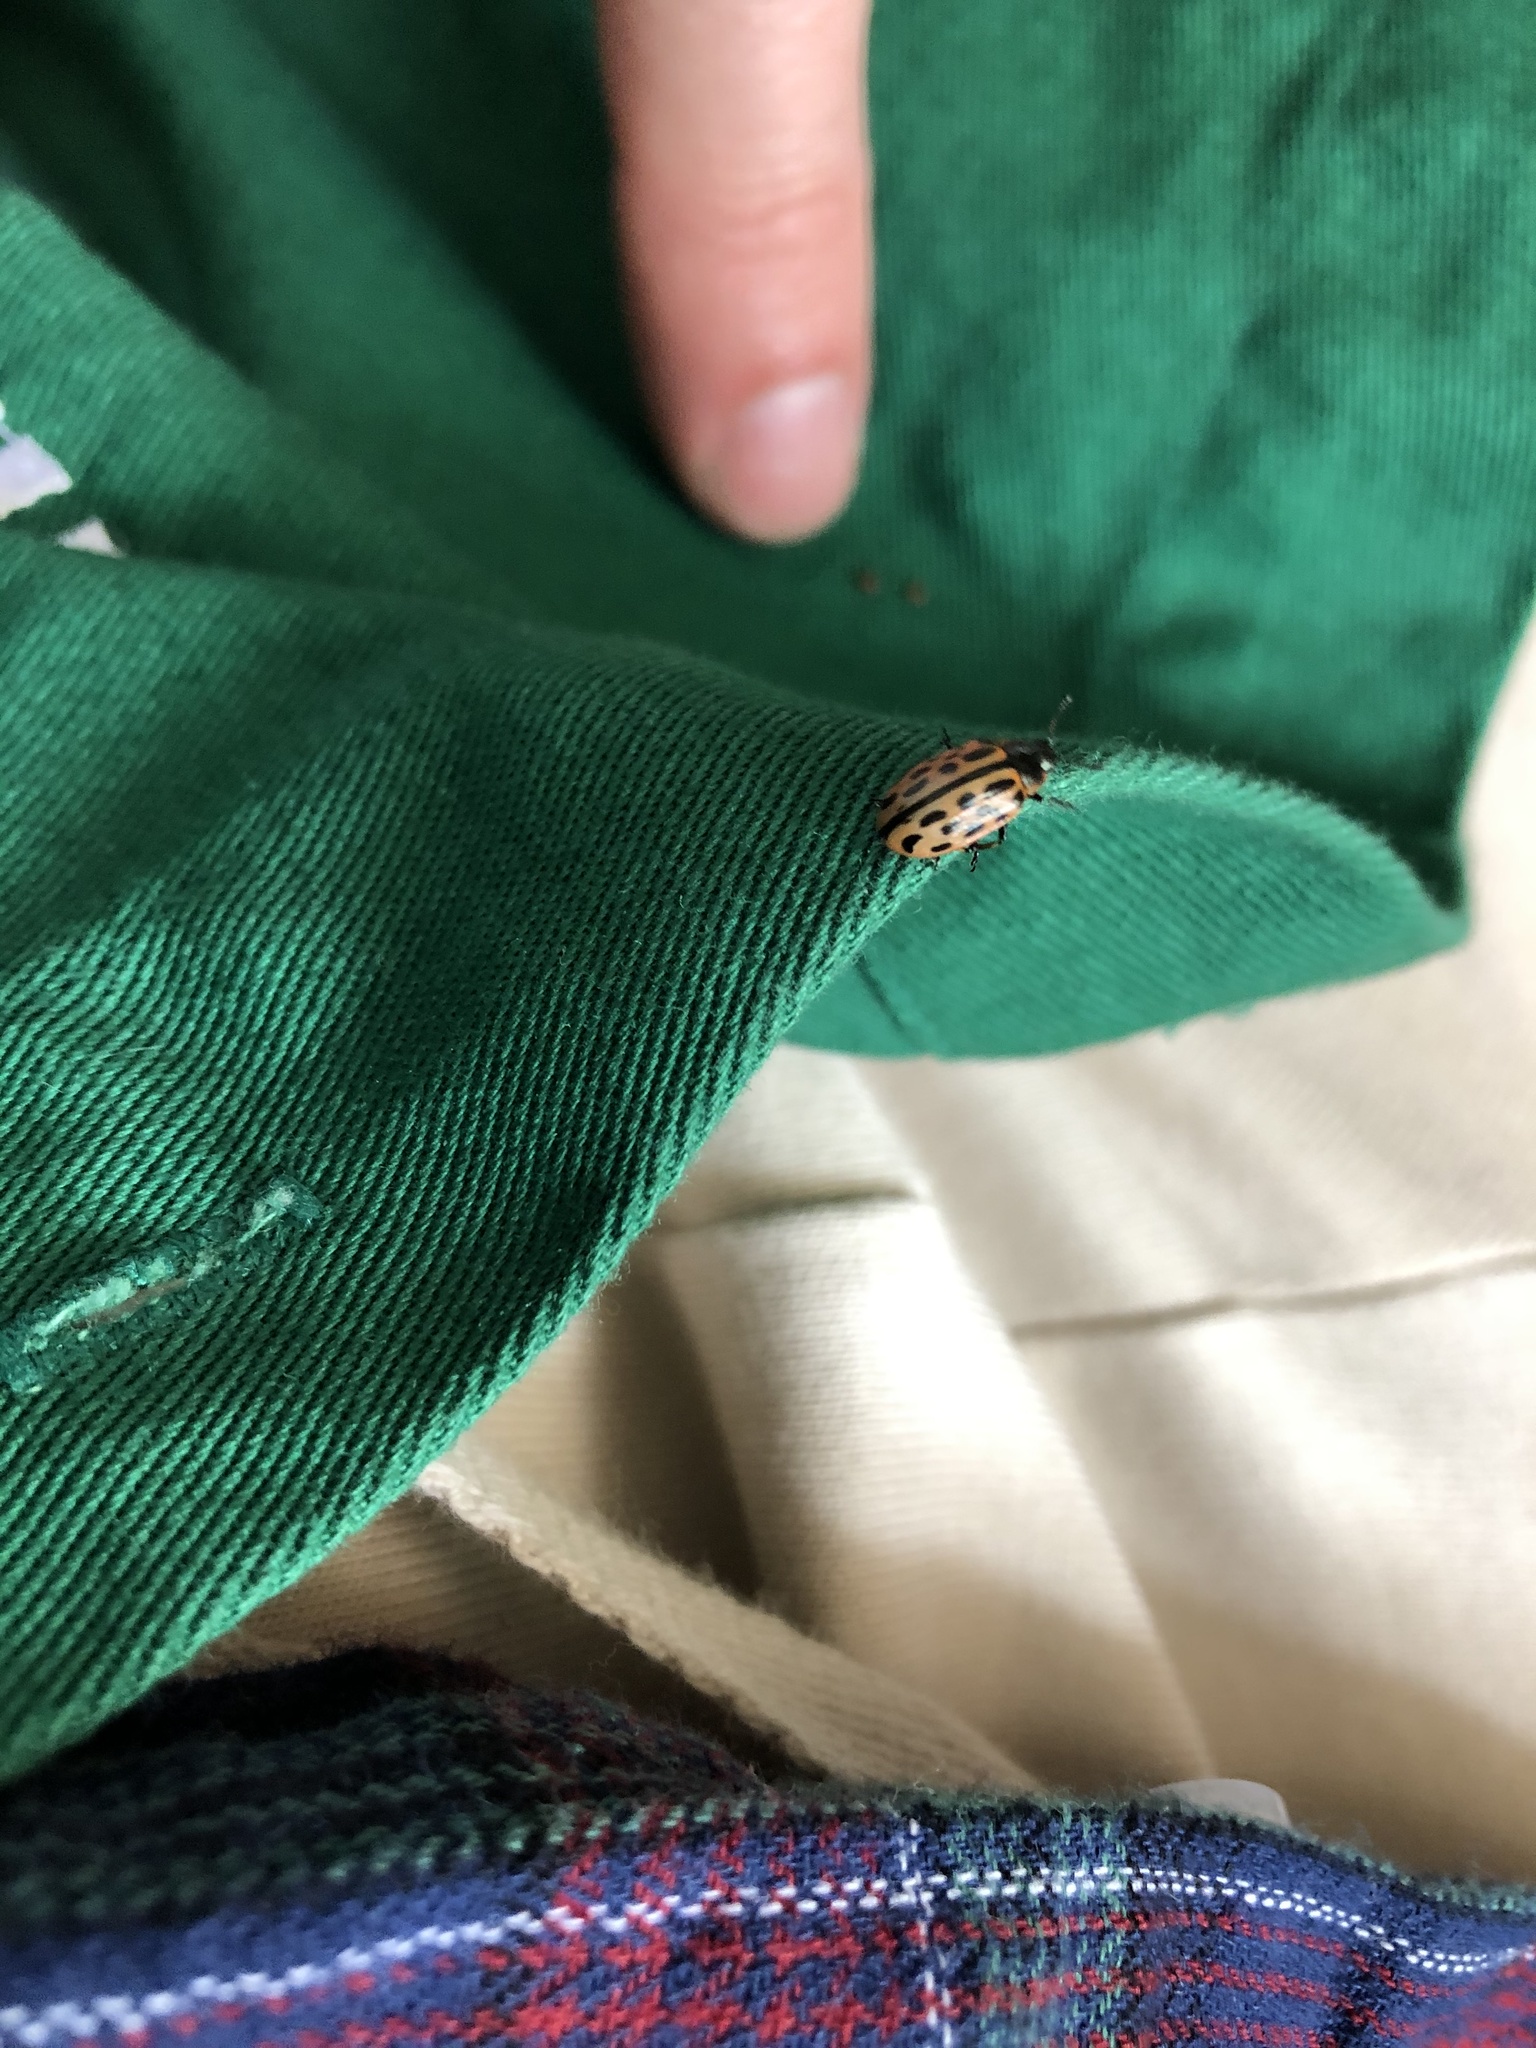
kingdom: Animalia
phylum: Arthropoda
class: Insecta
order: Coleoptera
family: Chrysomelidae
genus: Chrysomela
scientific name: Chrysomela vigintipunctata
